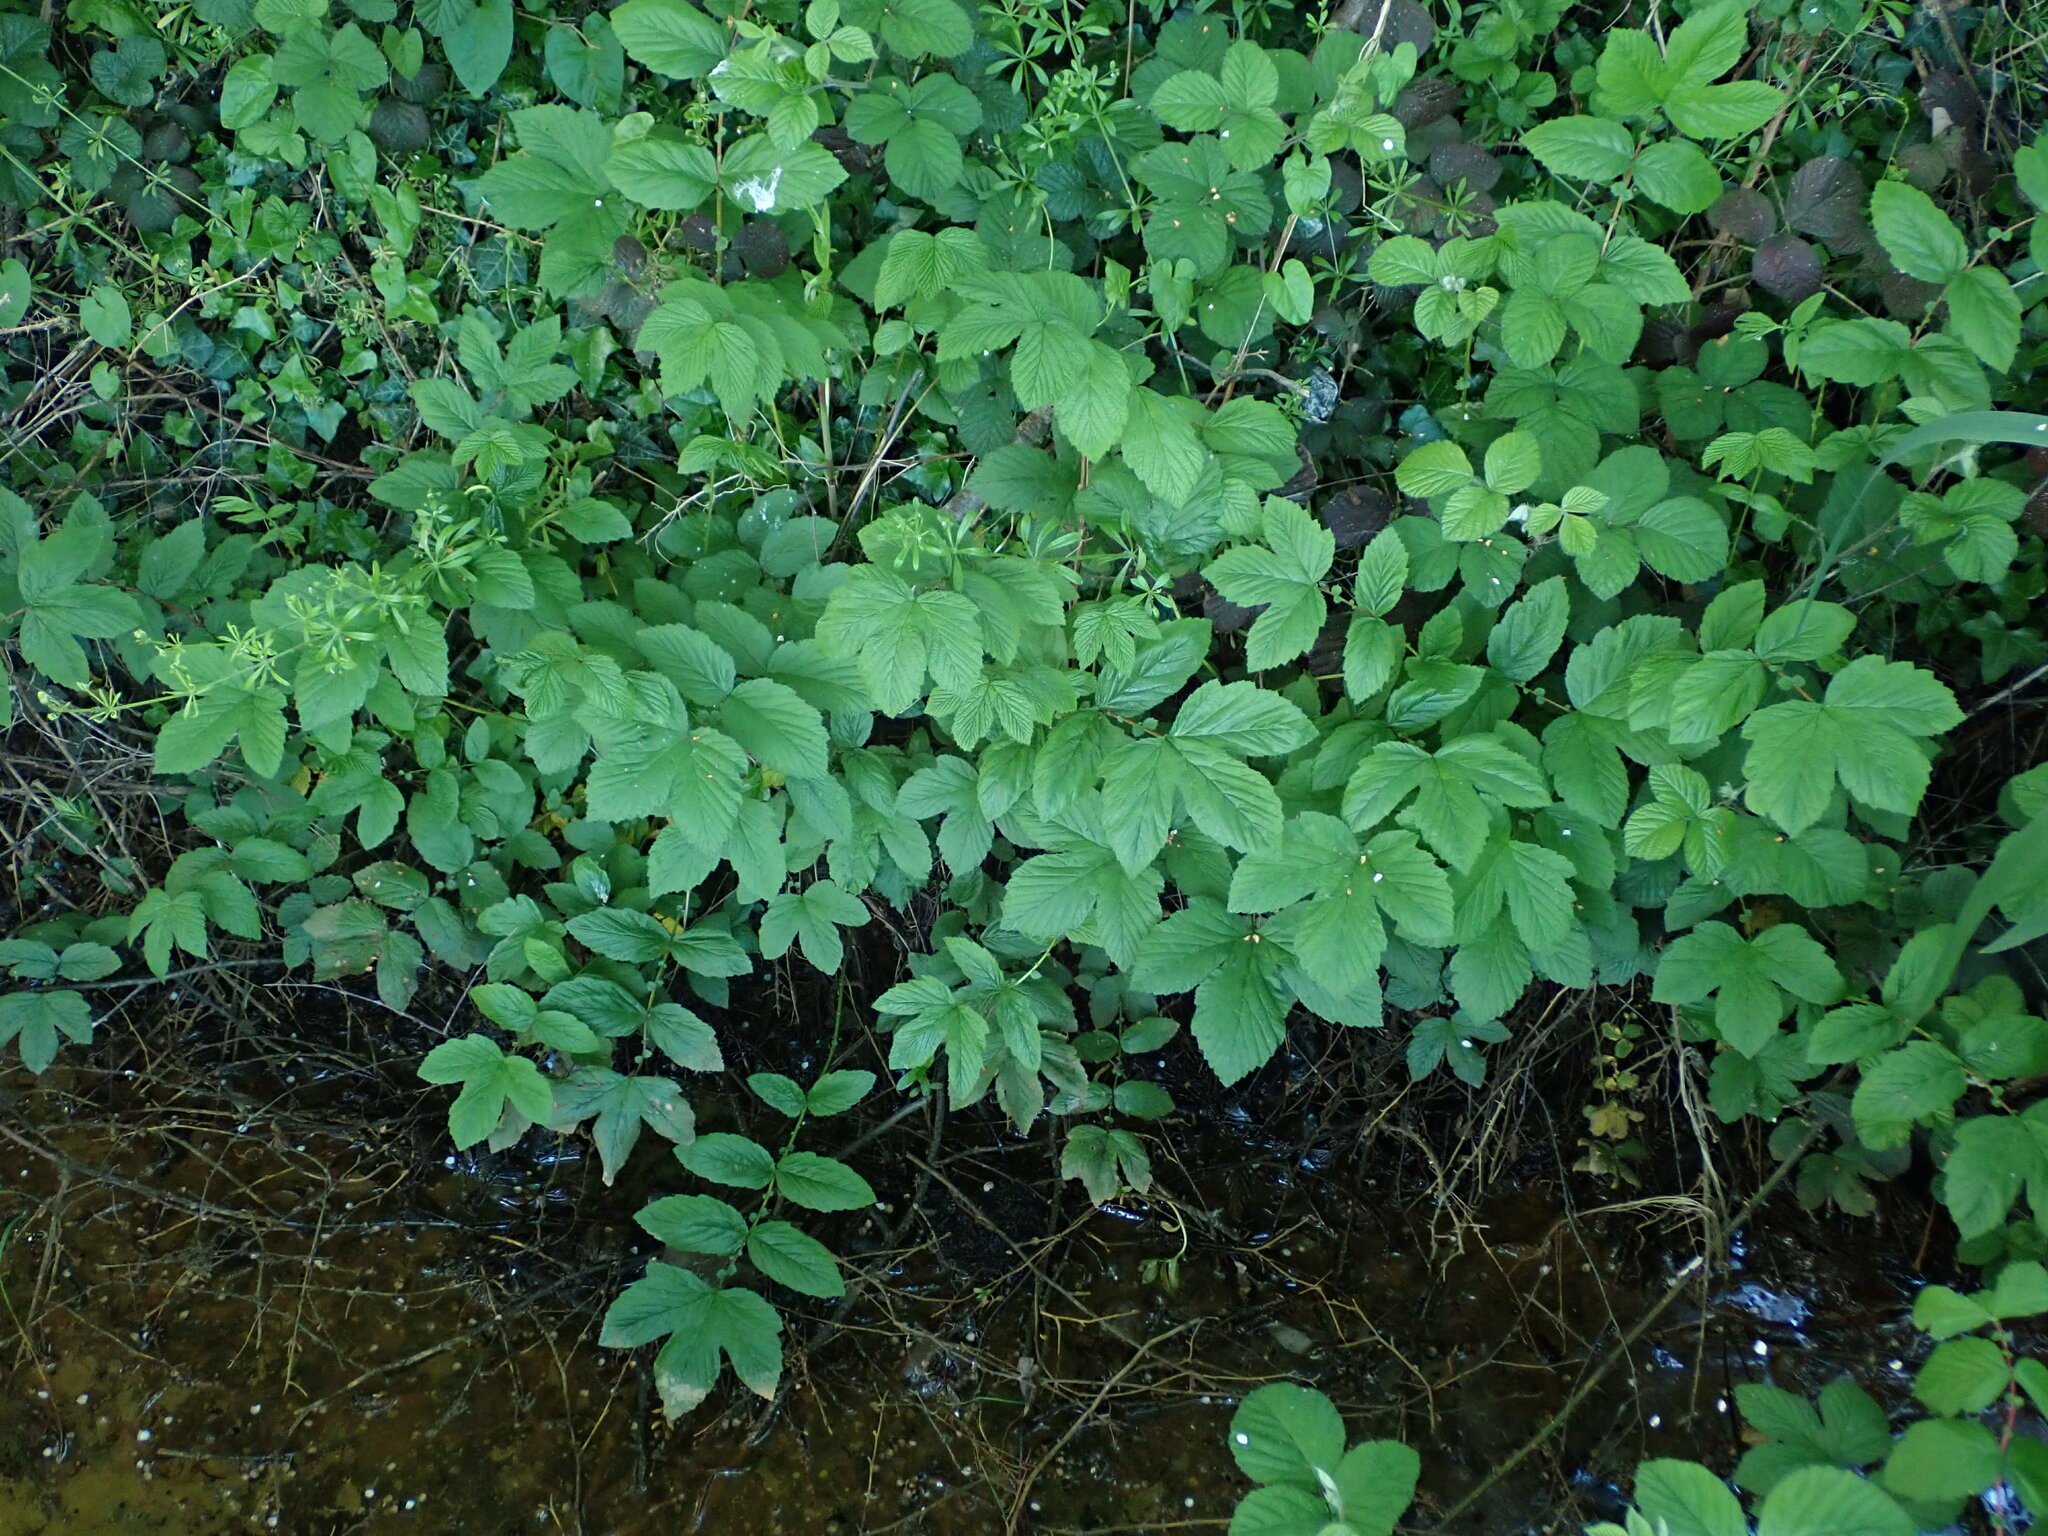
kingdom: Plantae
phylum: Tracheophyta
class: Magnoliopsida
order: Rosales
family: Rosaceae
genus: Filipendula
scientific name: Filipendula ulmaria
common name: Meadowsweet
